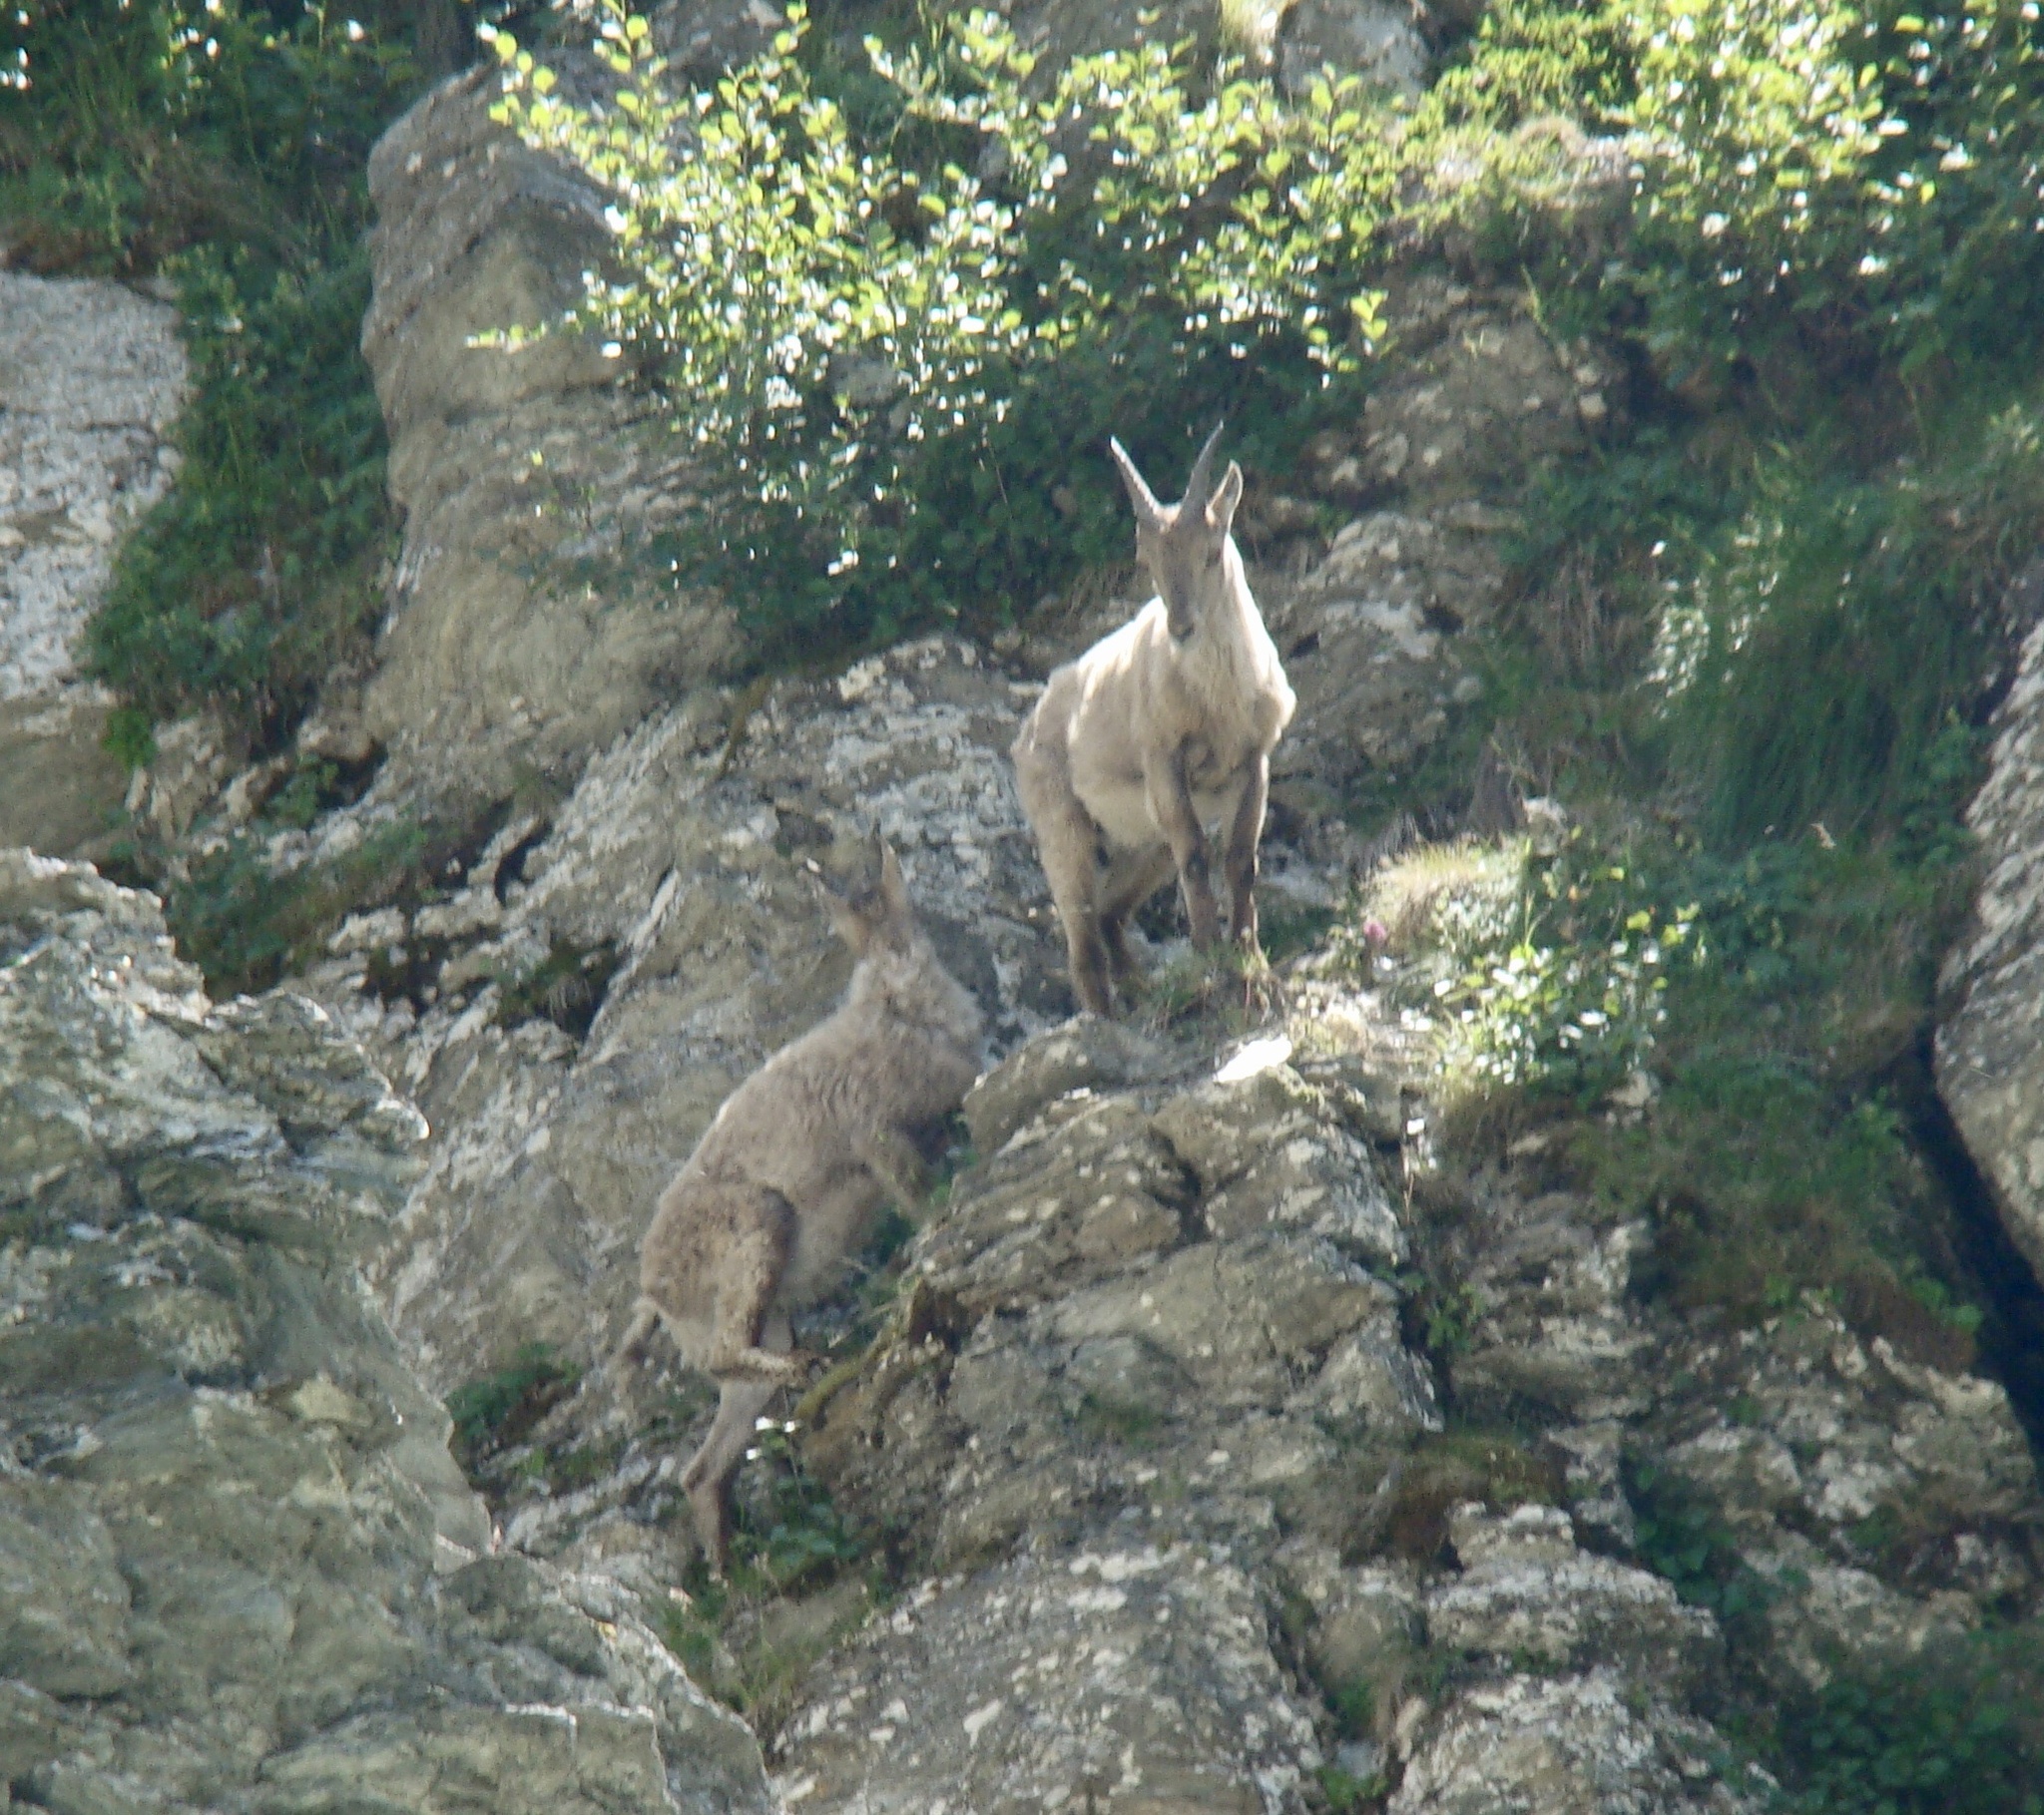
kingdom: Animalia
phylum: Chordata
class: Mammalia
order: Artiodactyla
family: Bovidae
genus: Capra
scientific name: Capra ibex
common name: Alpine ibex
